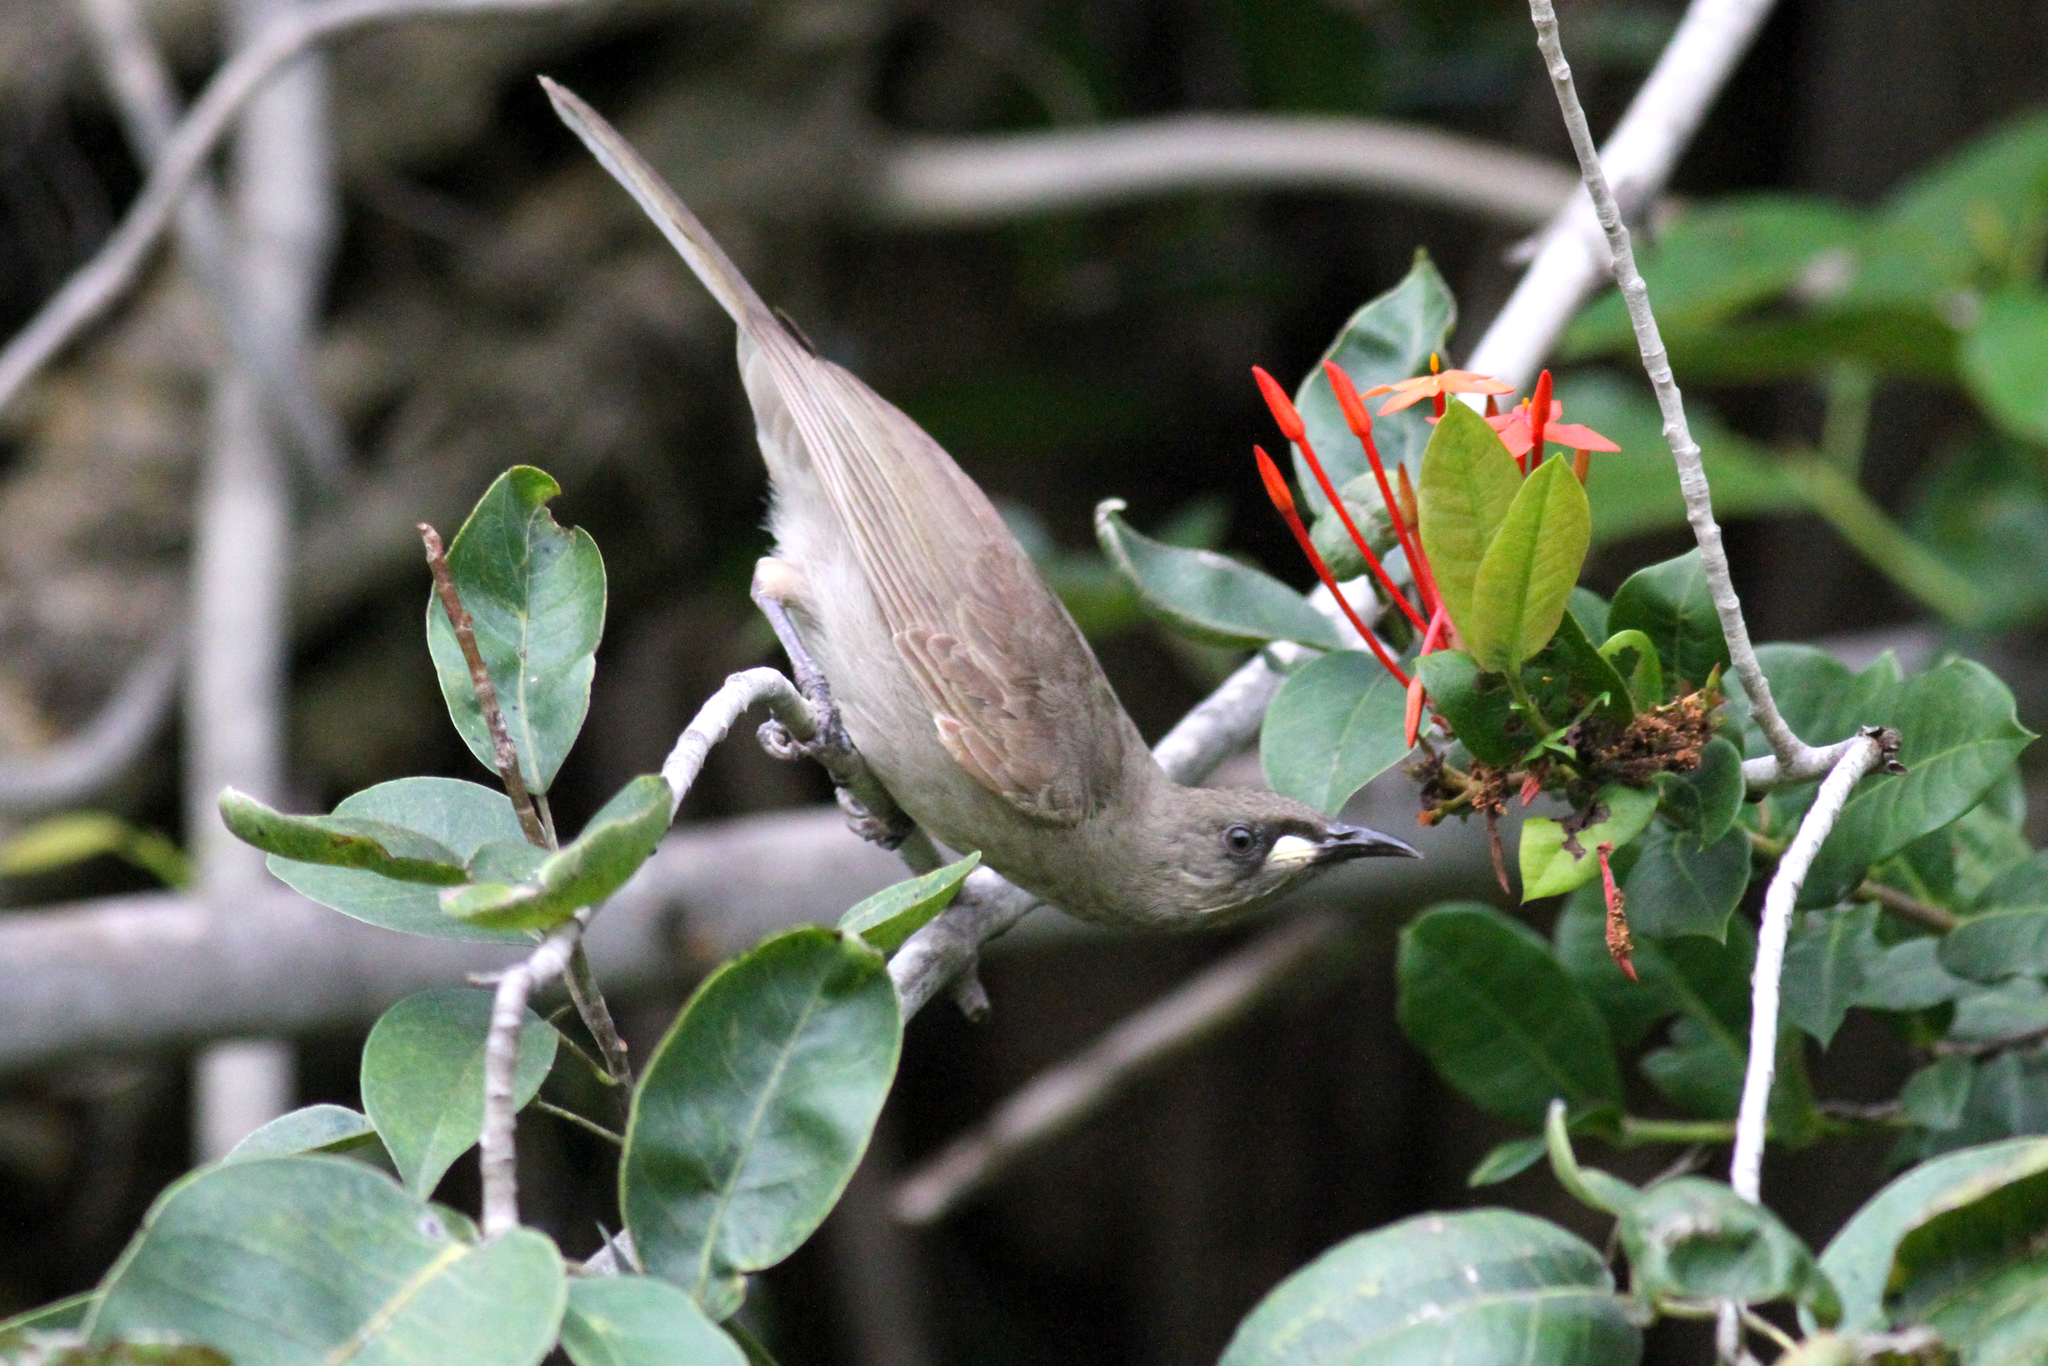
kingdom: Animalia
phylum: Chordata
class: Aves
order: Passeriformes
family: Meliphagidae
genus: Stomiopera
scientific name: Stomiopera unicolor
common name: White-gaped honeyeater
